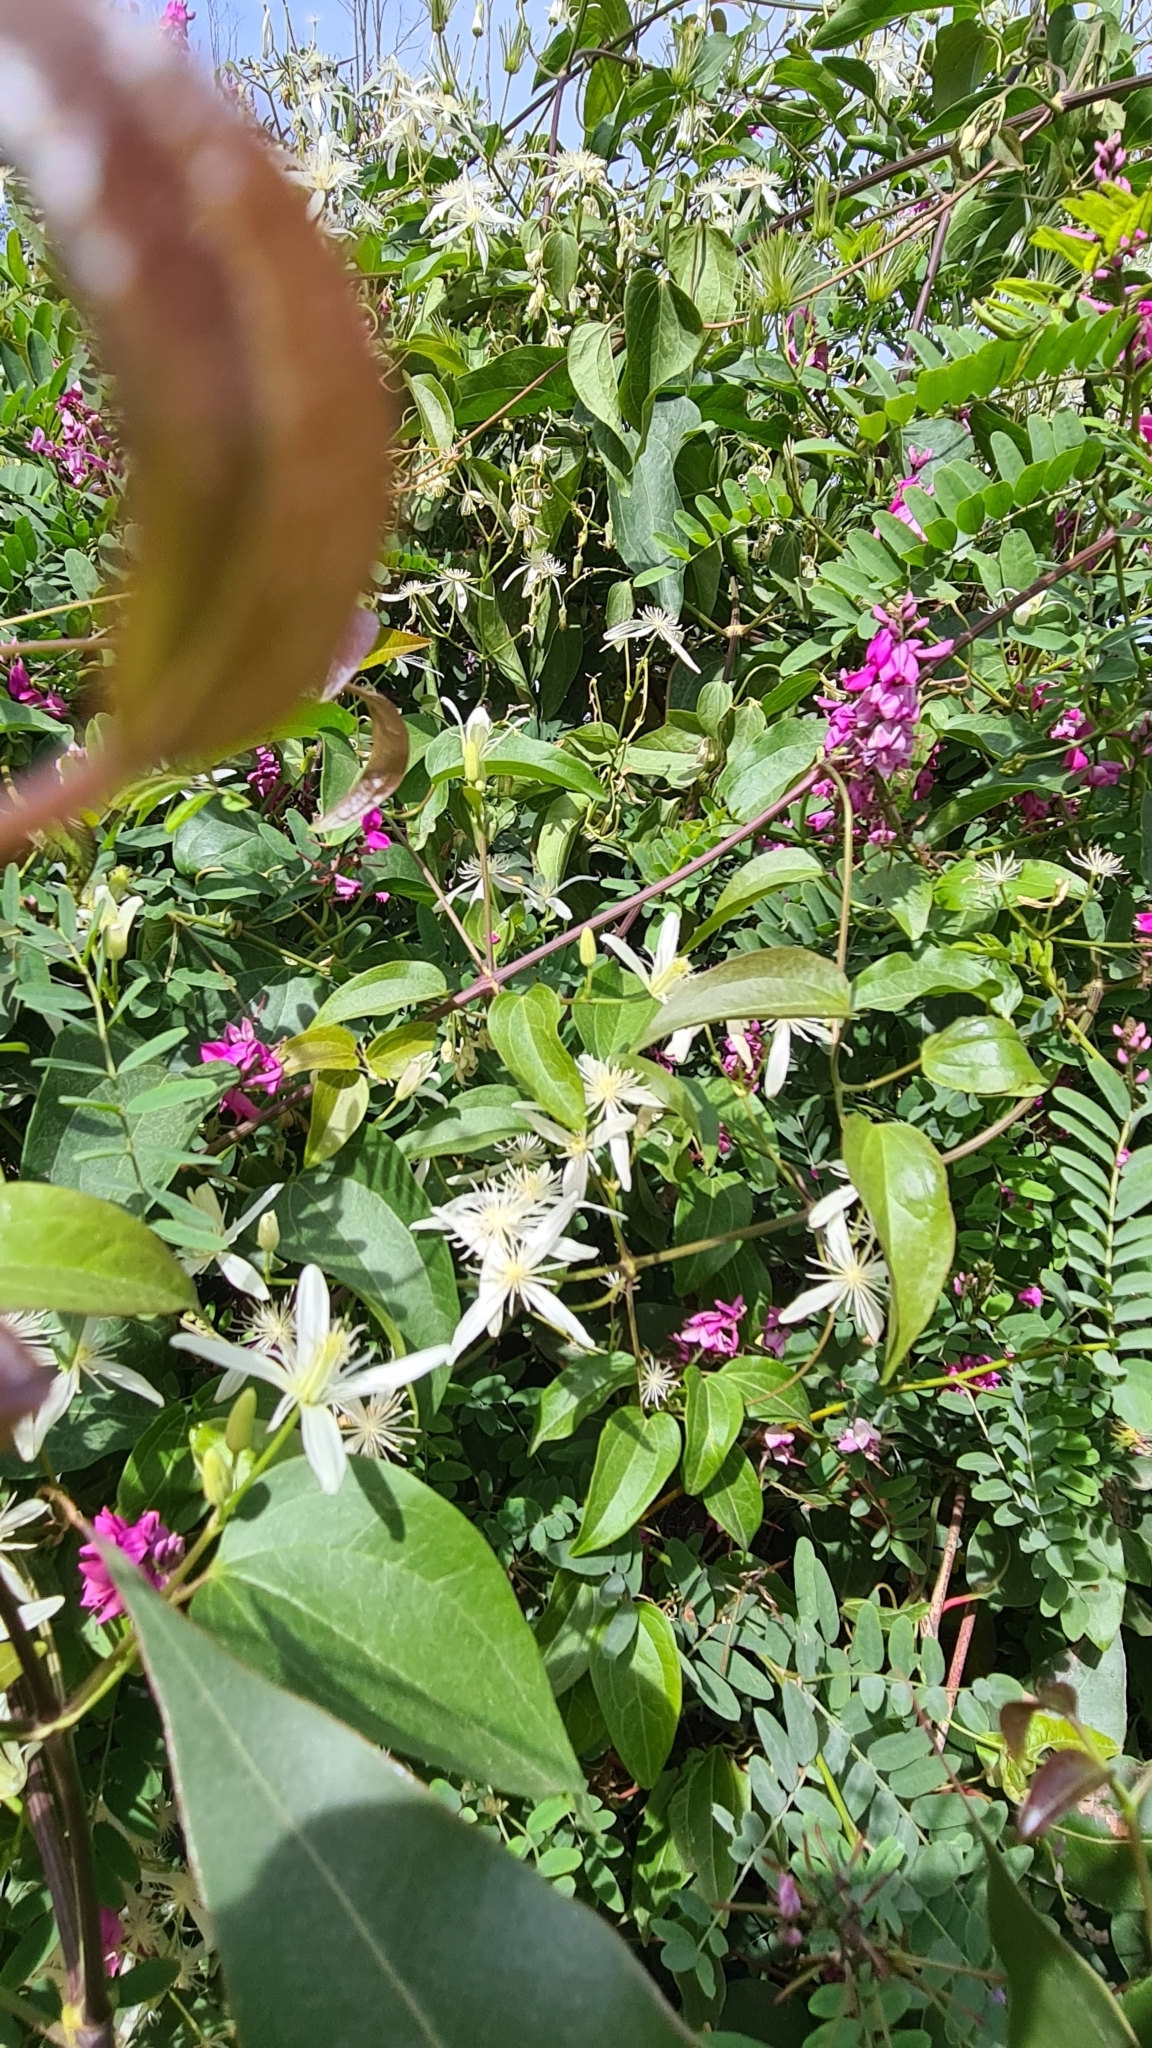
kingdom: Plantae
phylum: Tracheophyta
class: Magnoliopsida
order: Ranunculales
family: Ranunculaceae
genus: Clematis
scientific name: Clematis glycinoides
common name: Forest clematis
